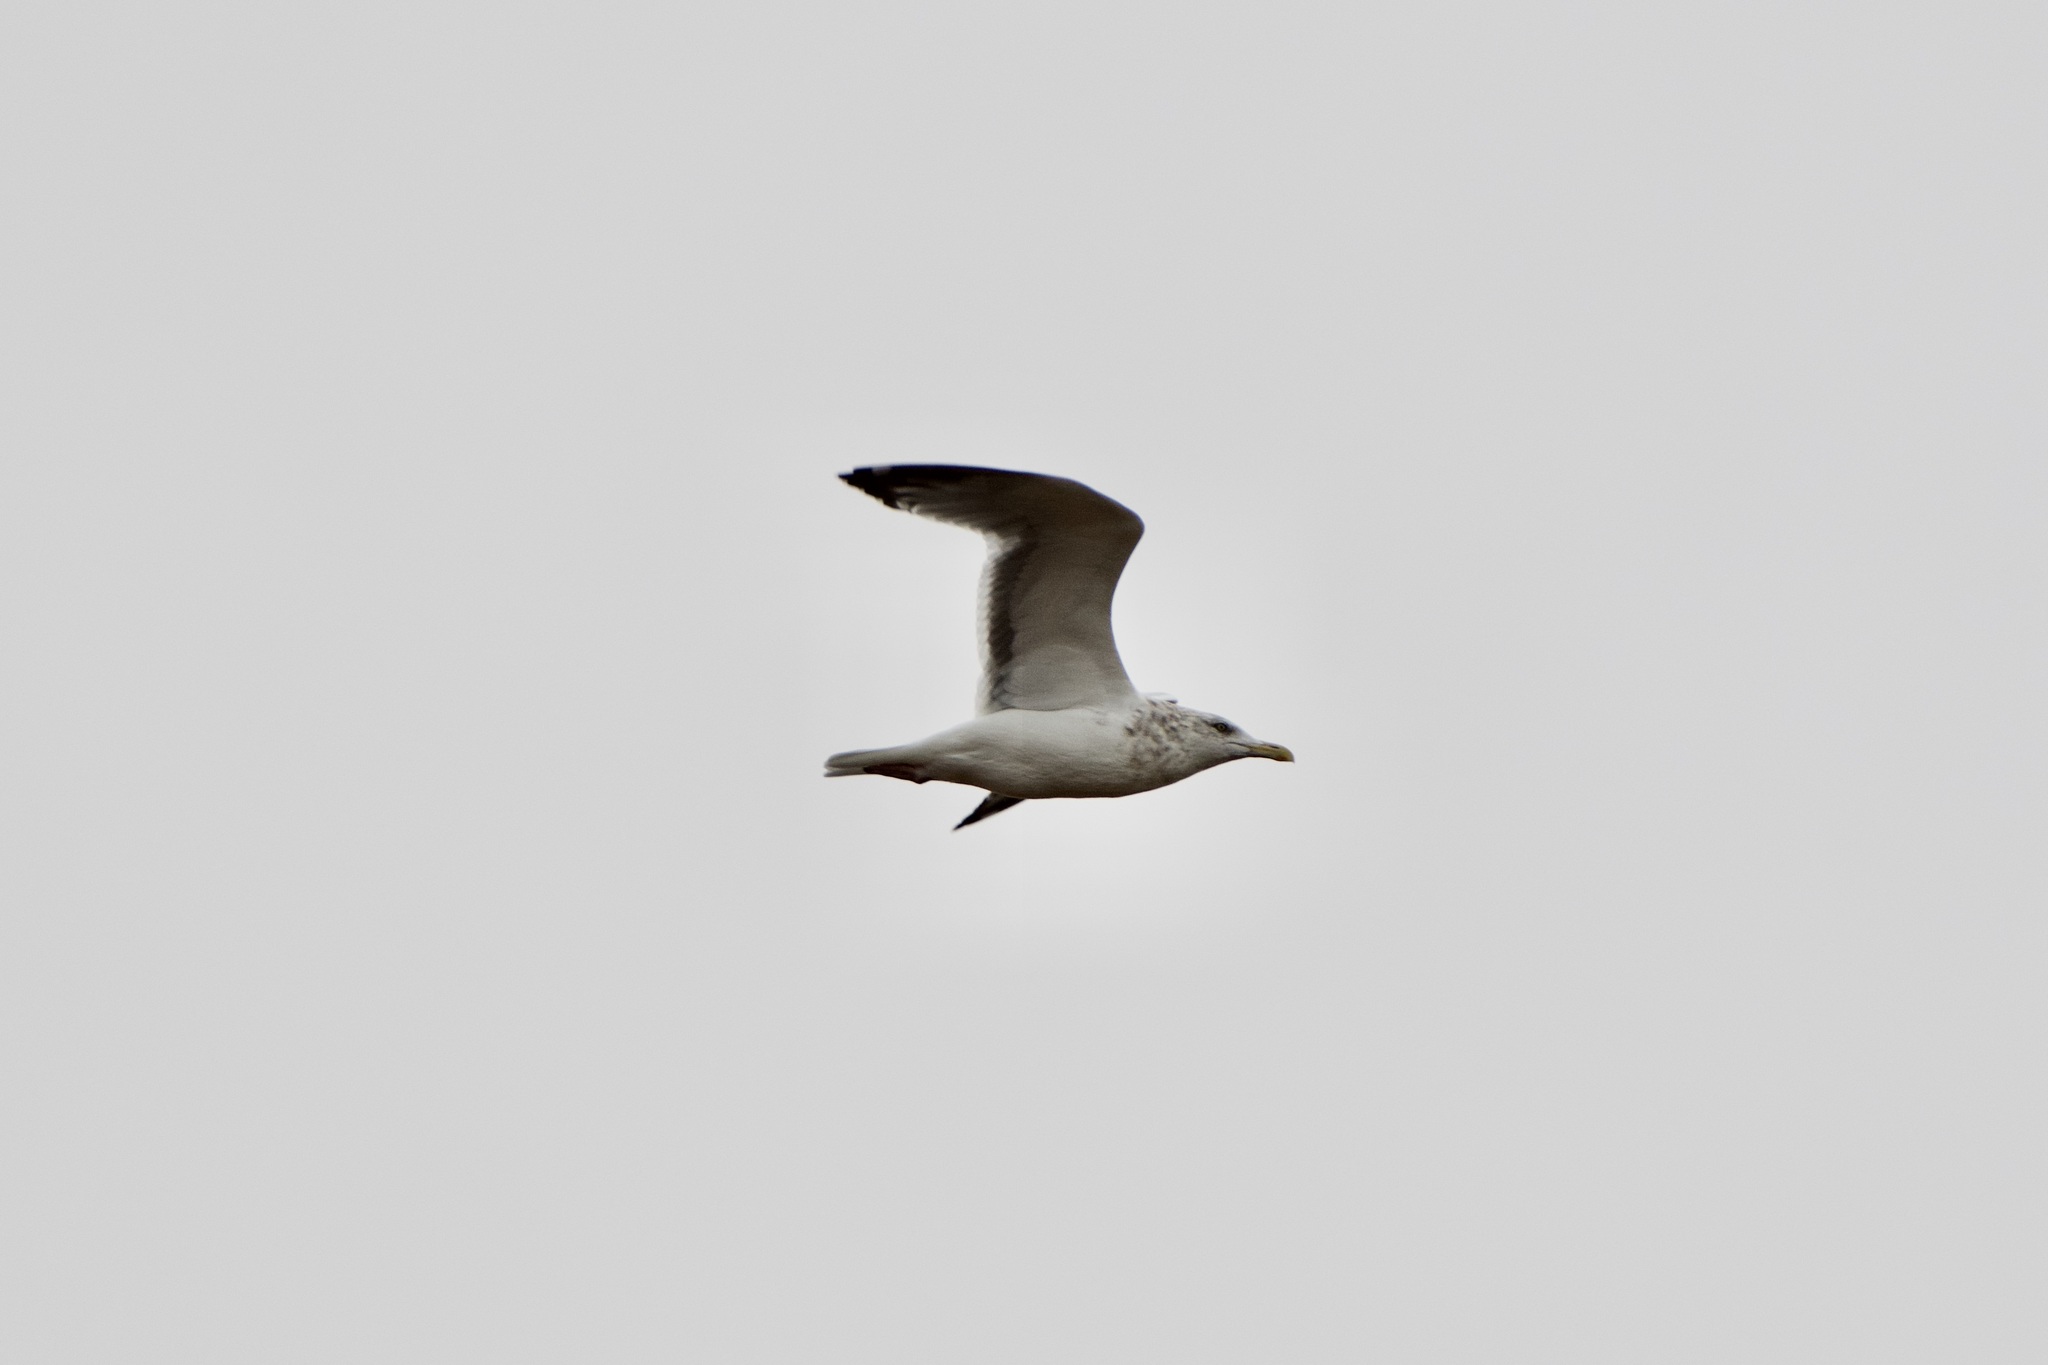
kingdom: Animalia
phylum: Chordata
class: Aves
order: Charadriiformes
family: Laridae
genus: Larus
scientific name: Larus argentatus
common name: Herring gull
